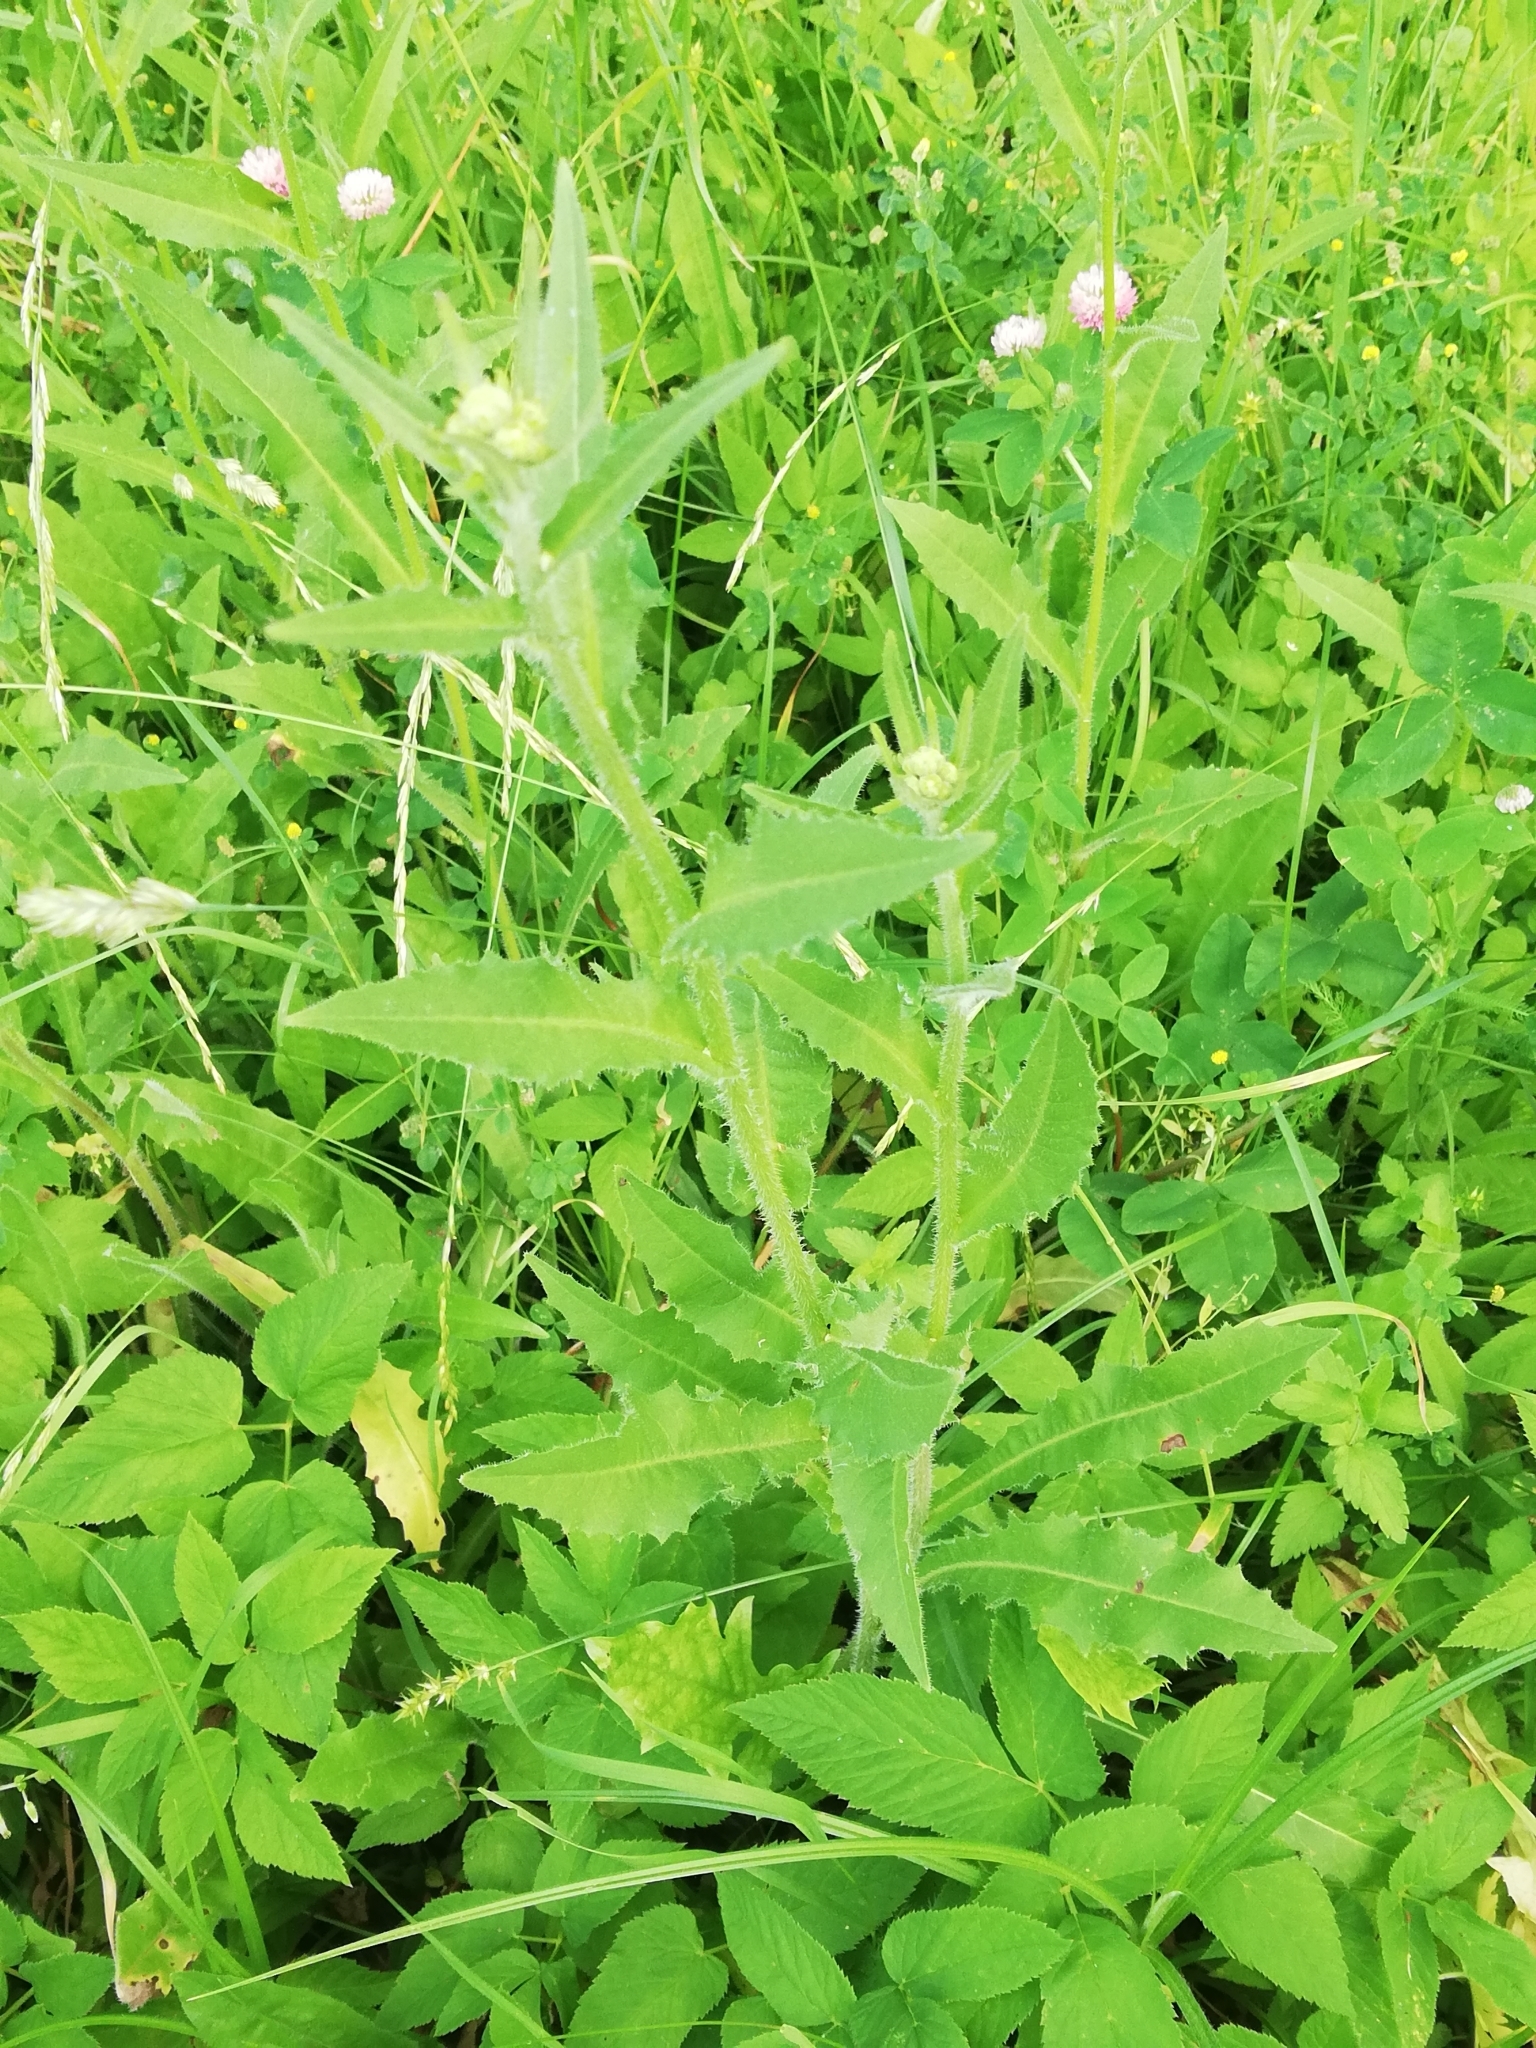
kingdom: Plantae
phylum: Tracheophyta
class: Magnoliopsida
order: Asterales
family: Asteraceae
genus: Picris
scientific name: Picris hieracioides
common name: Hawkweed oxtongue
